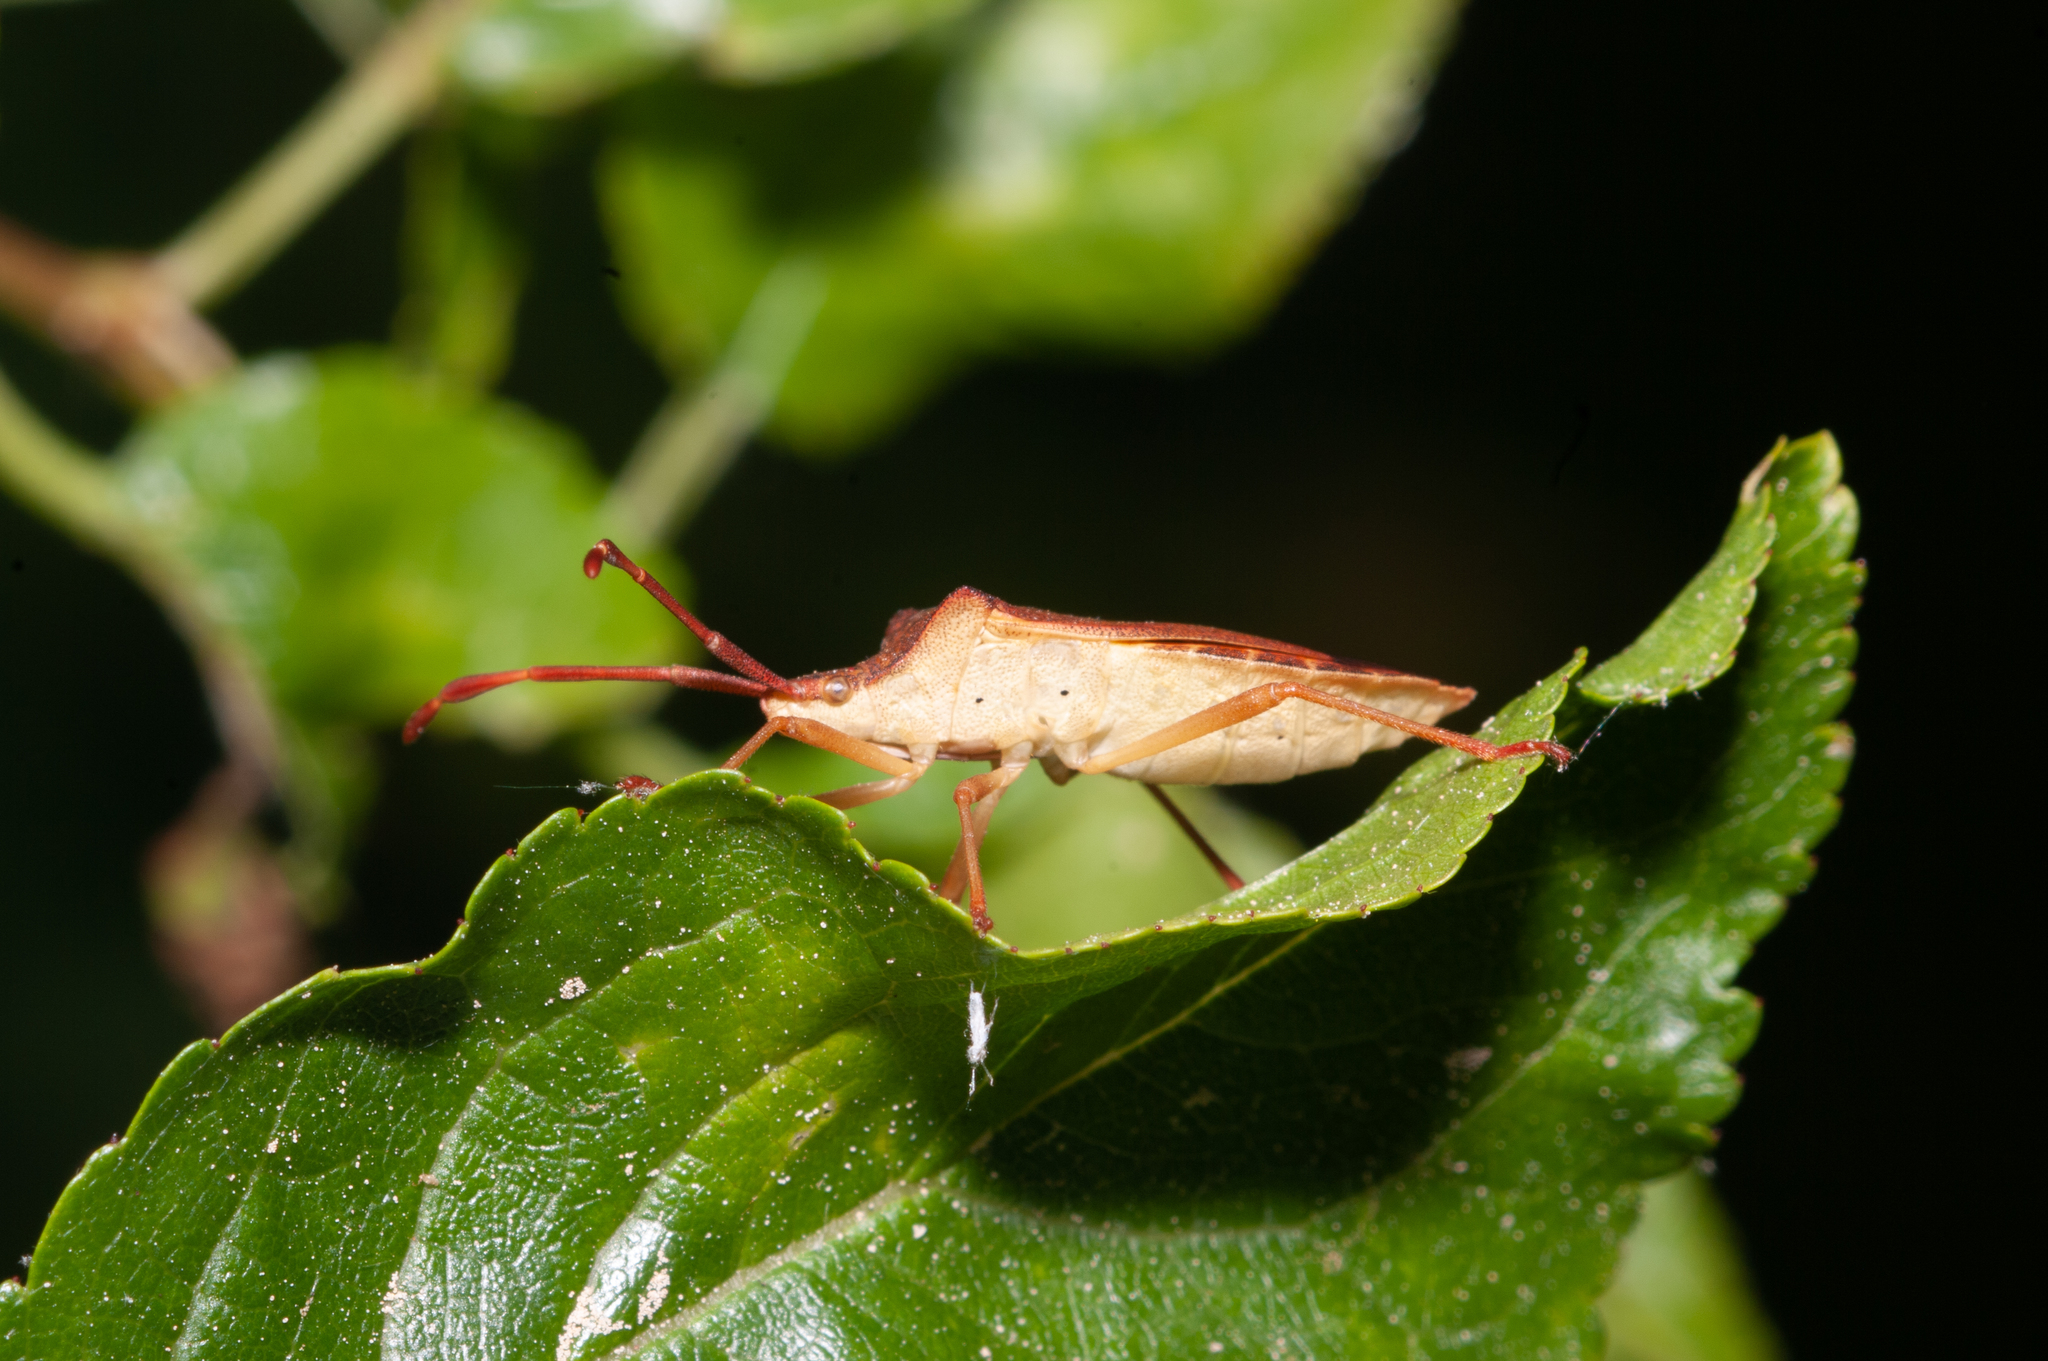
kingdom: Animalia
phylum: Arthropoda
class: Insecta
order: Hemiptera
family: Coreidae
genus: Gonocerus
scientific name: Gonocerus acuteangulatus
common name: Box bug
